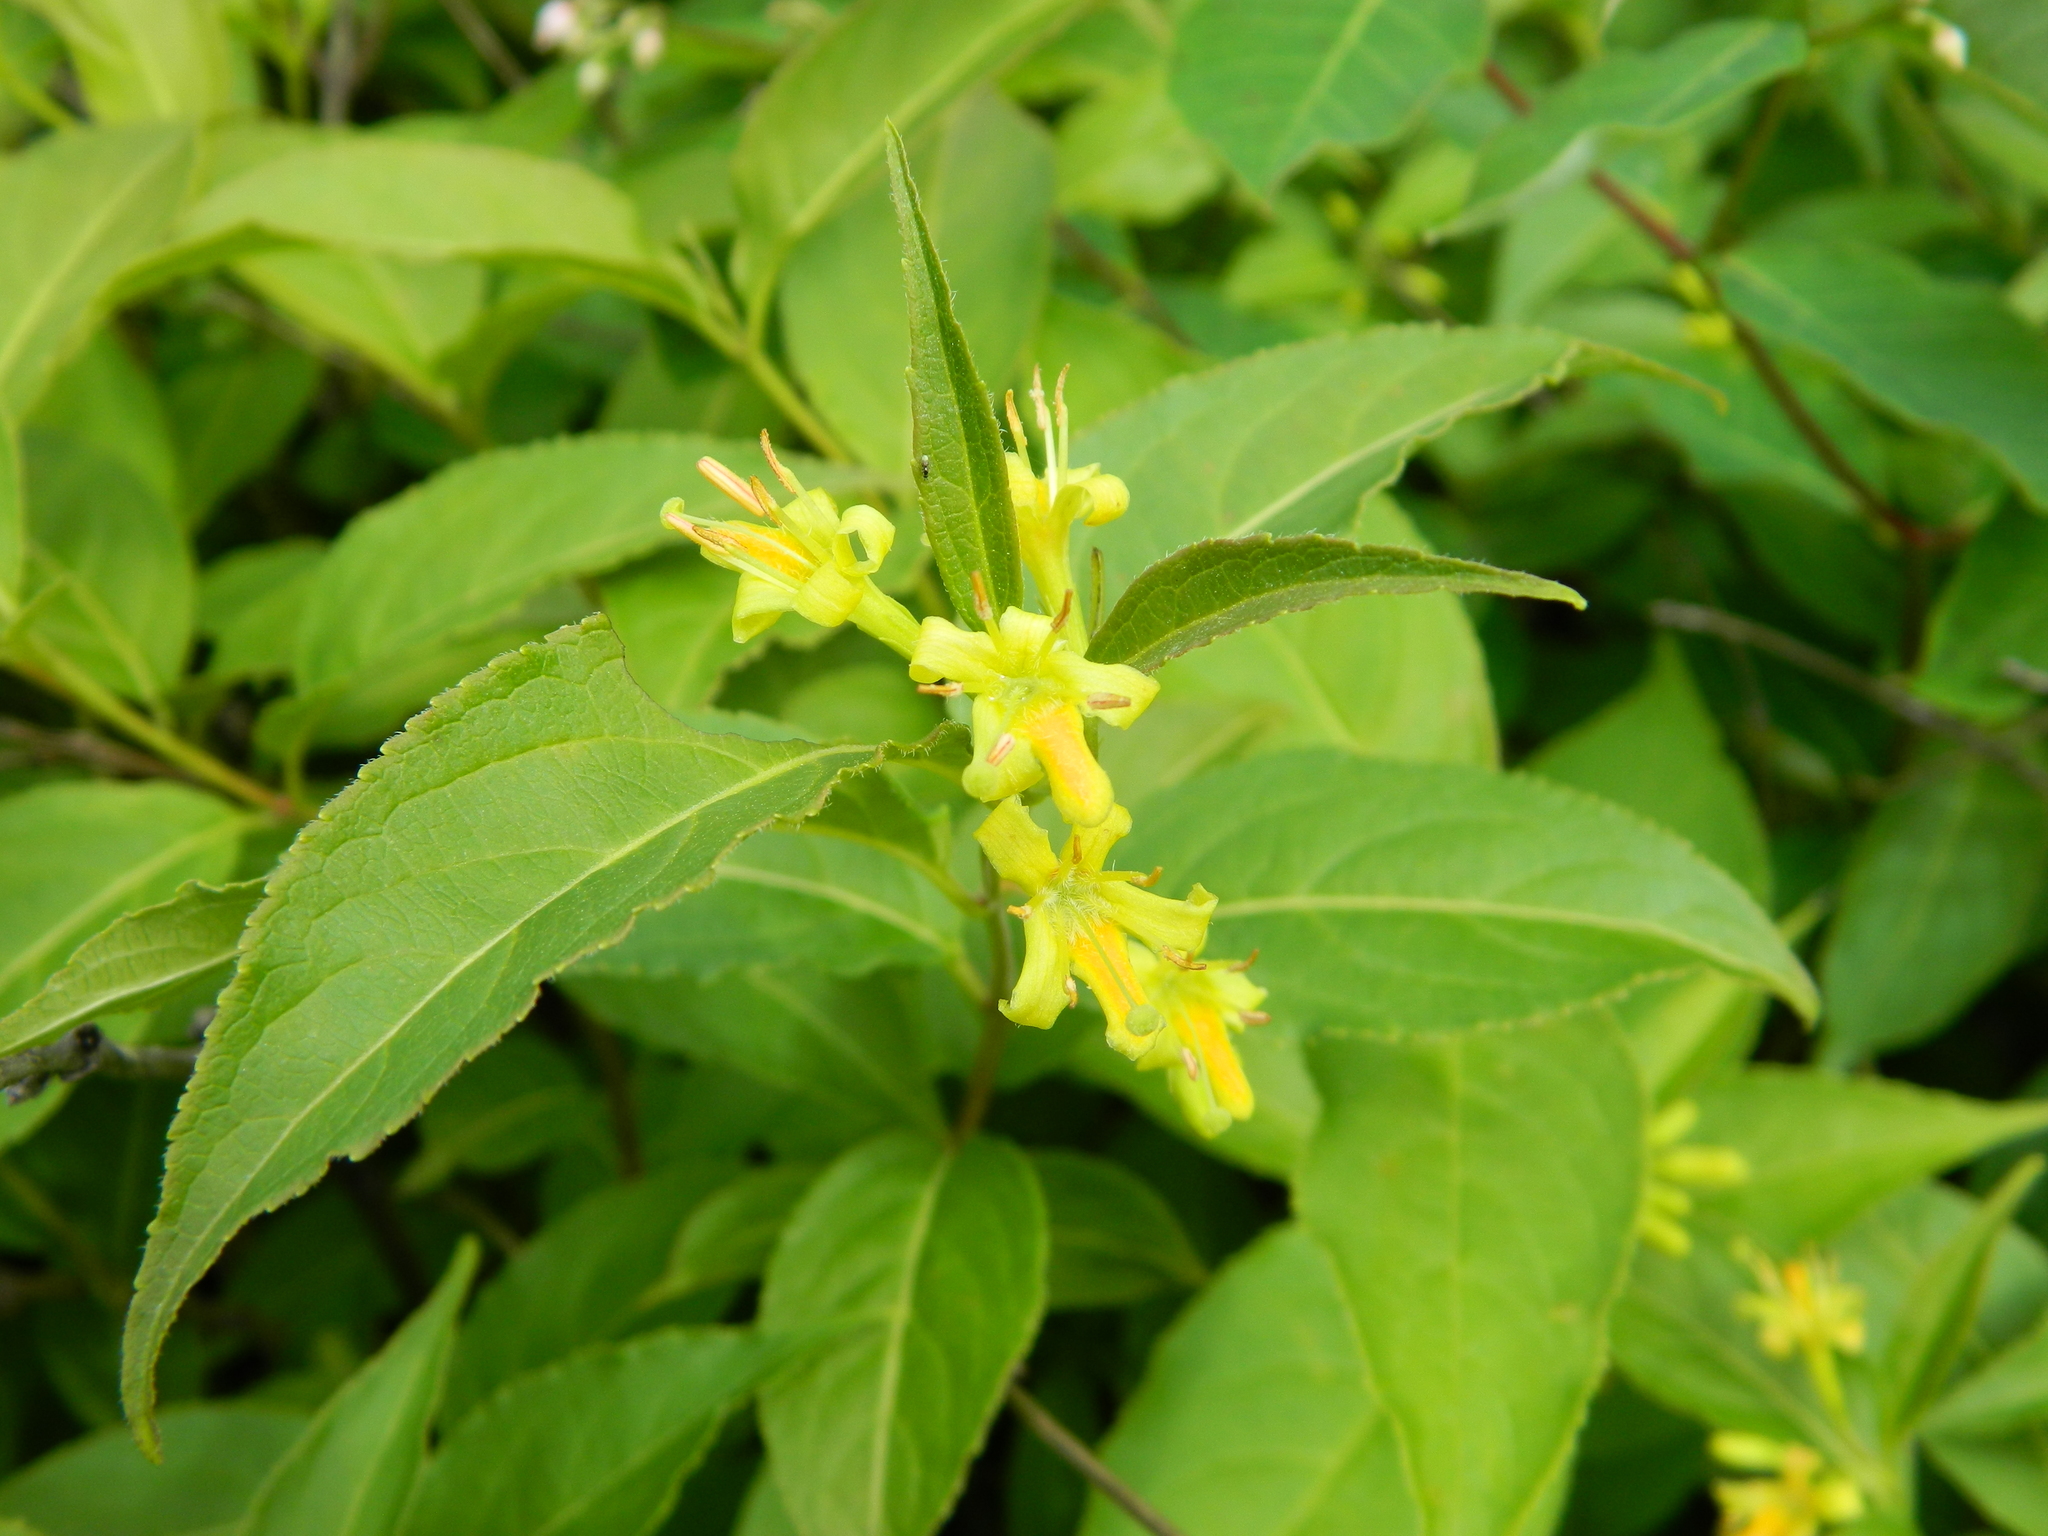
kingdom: Plantae
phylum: Tracheophyta
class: Magnoliopsida
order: Dipsacales
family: Caprifoliaceae
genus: Diervilla
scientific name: Diervilla lonicera
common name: Bush-honeysuckle
